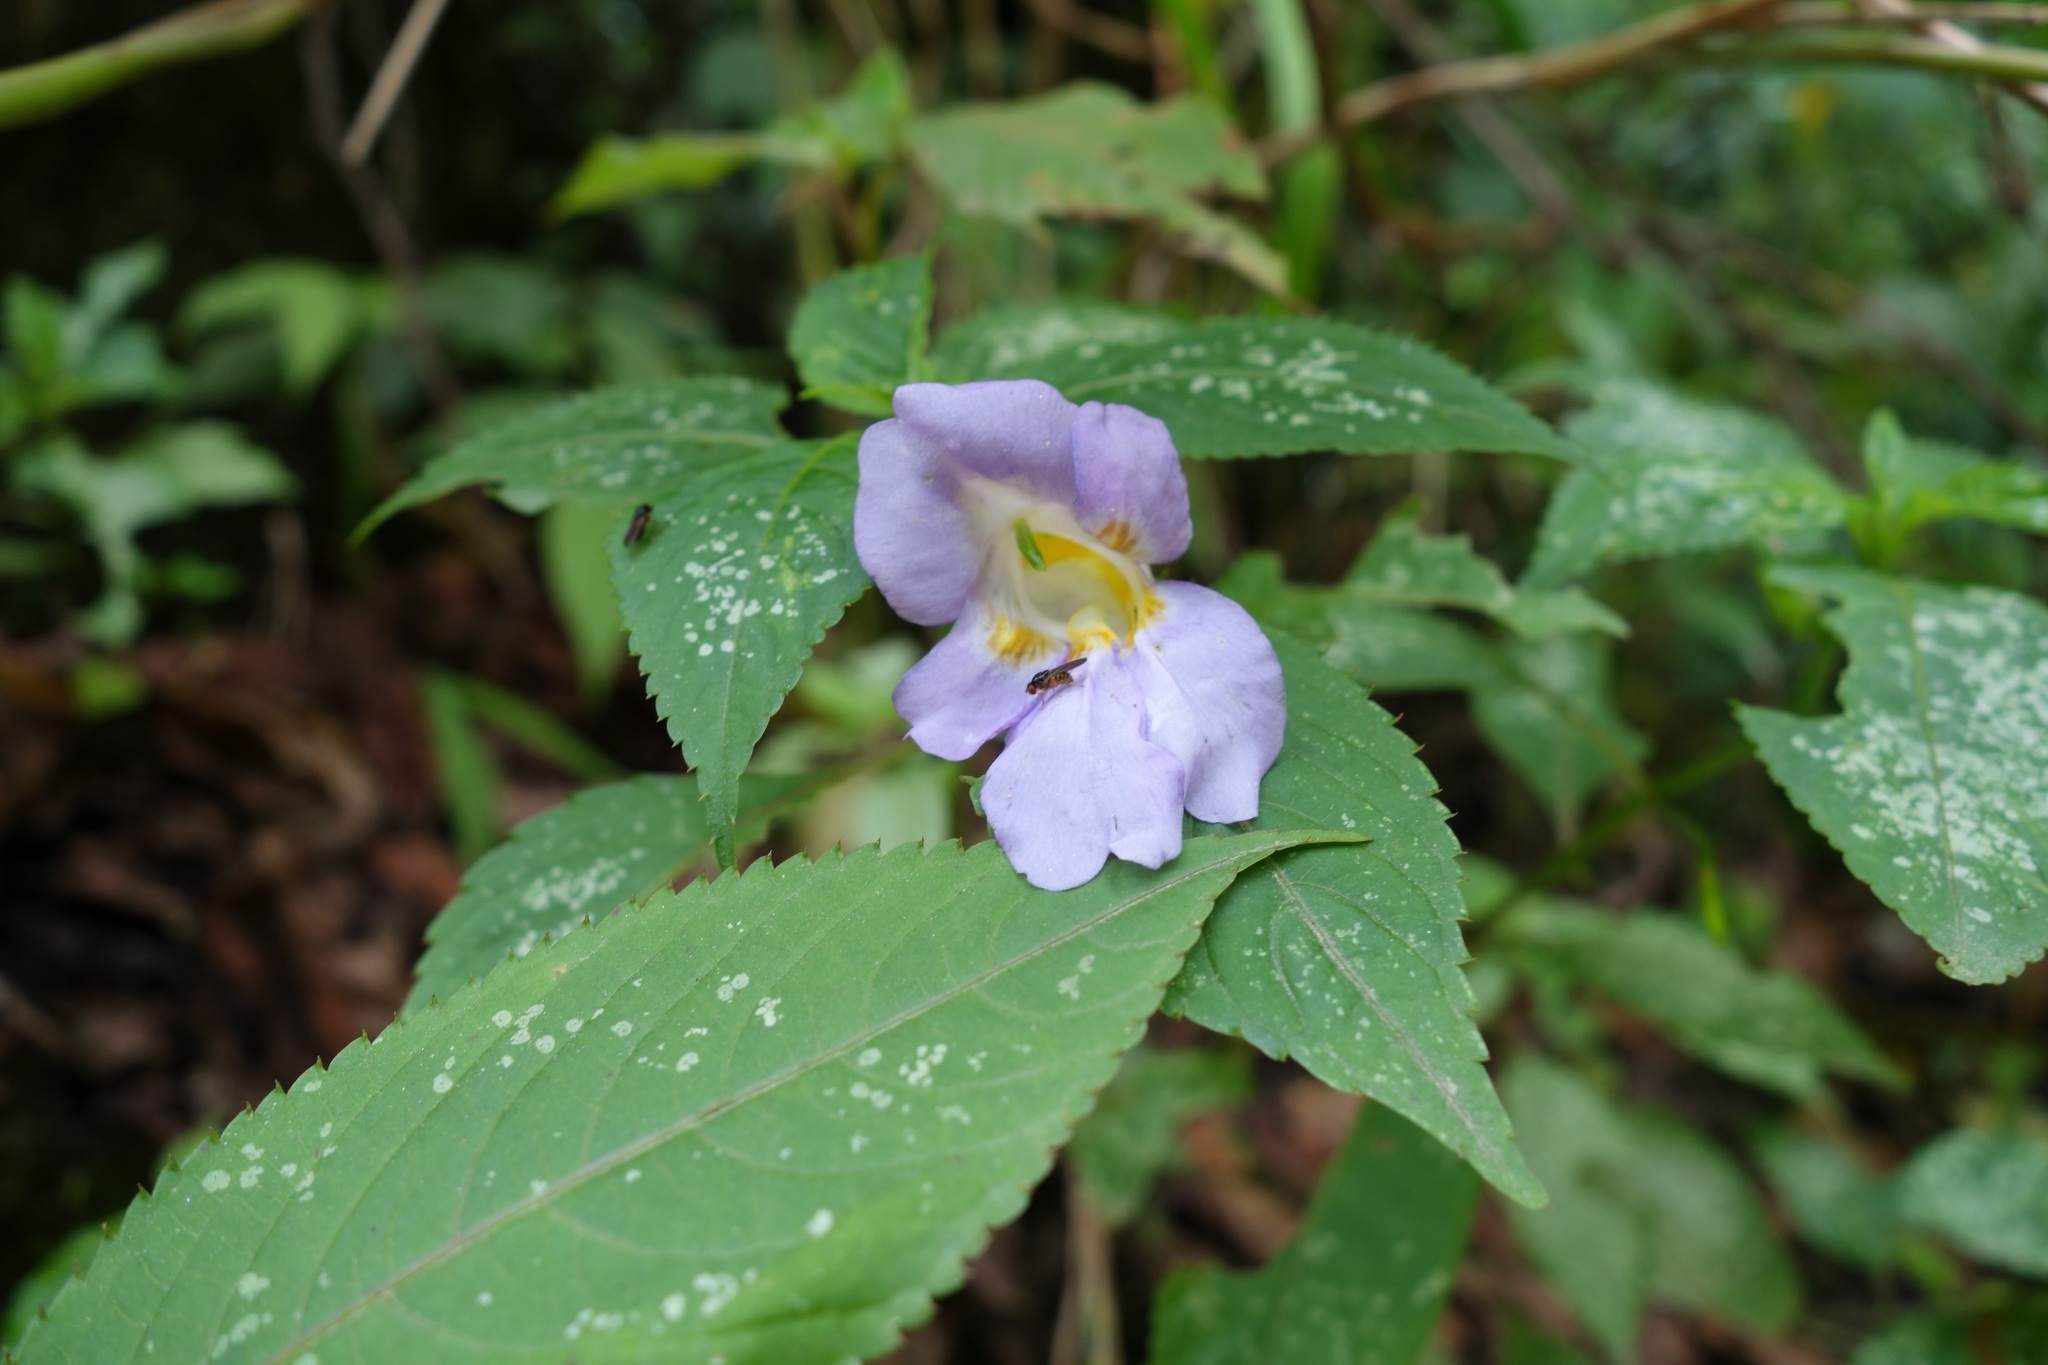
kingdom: Plantae
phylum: Tracheophyta
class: Magnoliopsida
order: Ericales
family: Balsaminaceae
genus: Impatiens
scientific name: Impatiens arguta
